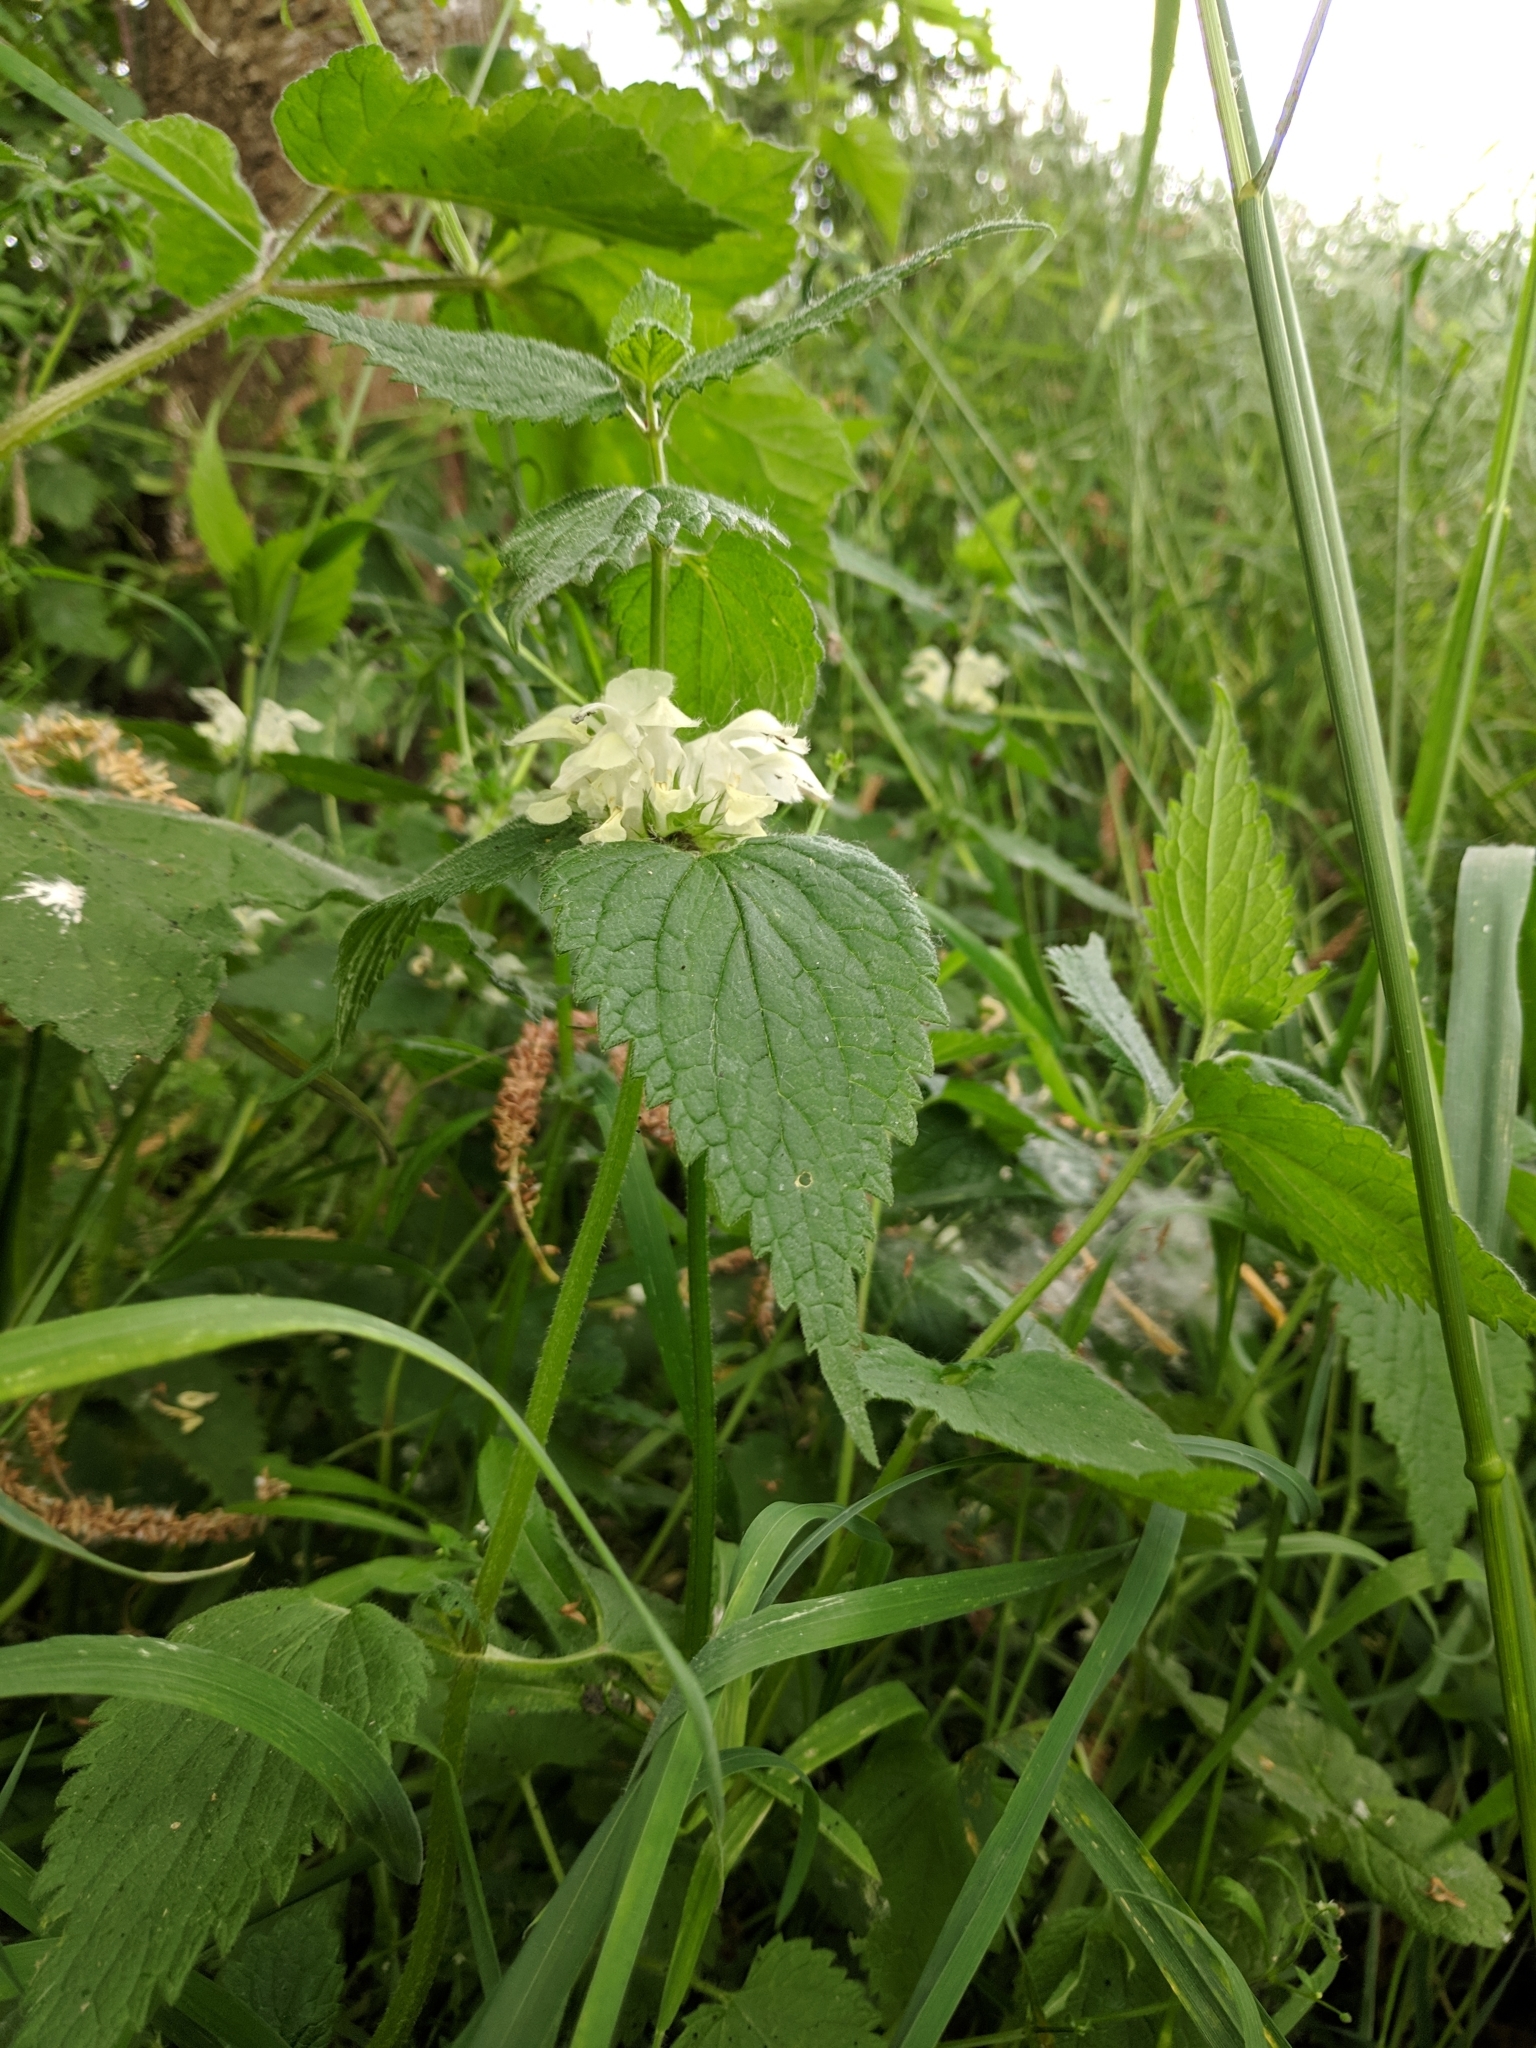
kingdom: Plantae
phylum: Tracheophyta
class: Magnoliopsida
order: Lamiales
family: Lamiaceae
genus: Lamium
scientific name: Lamium album
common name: White dead-nettle
